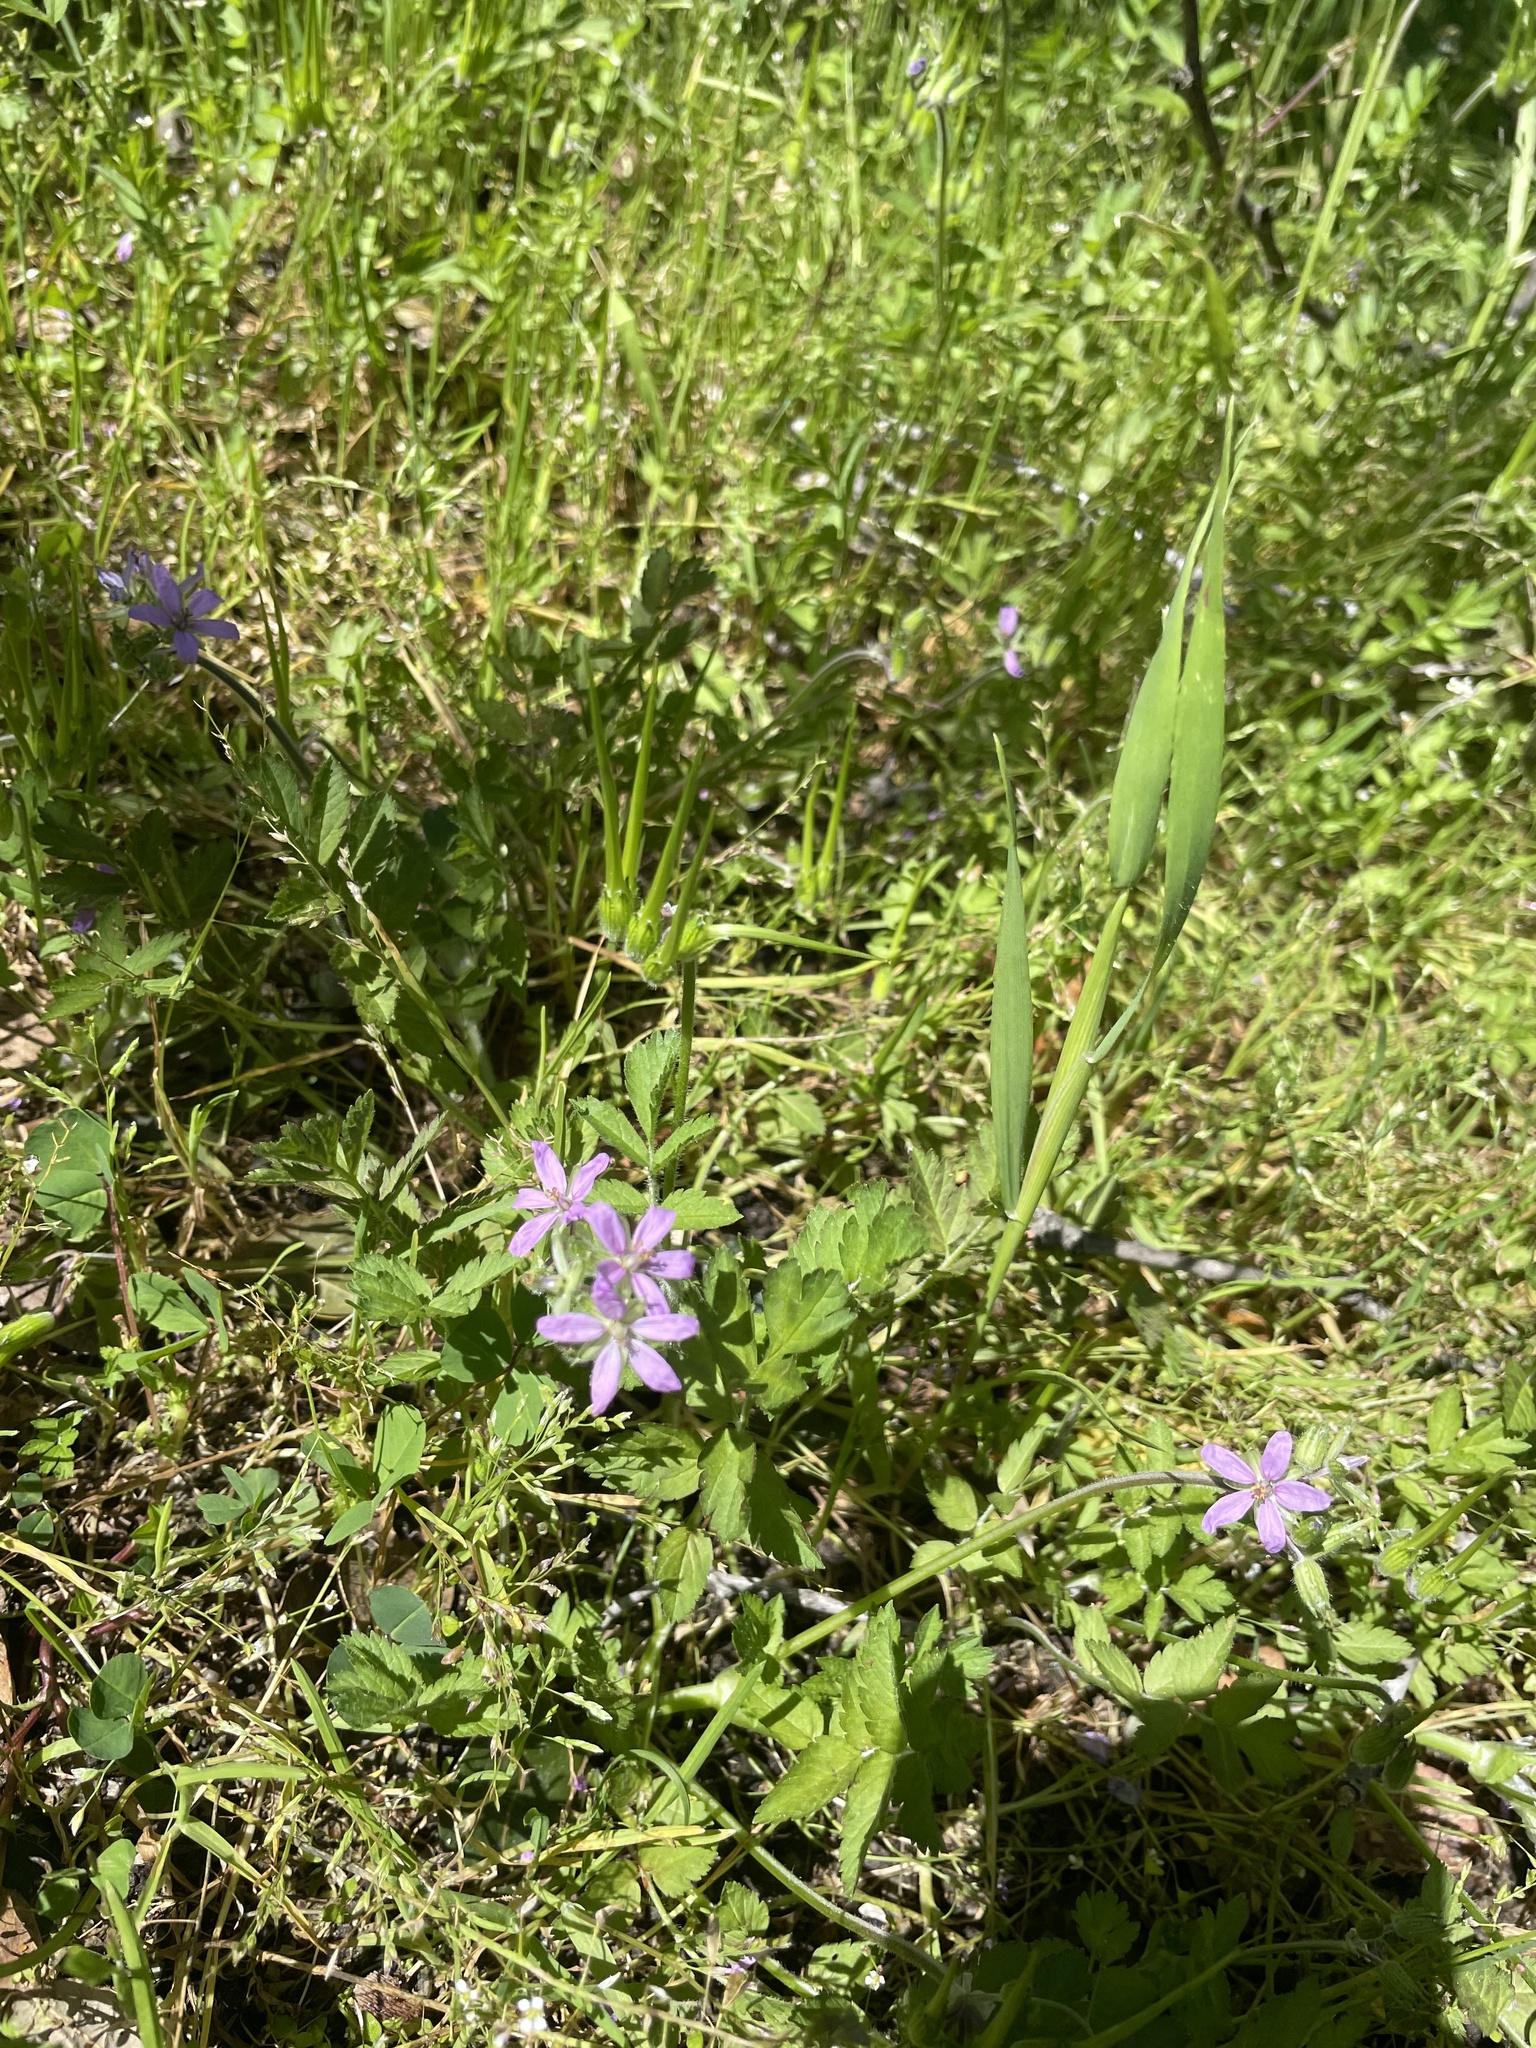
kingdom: Plantae
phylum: Tracheophyta
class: Magnoliopsida
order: Geraniales
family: Geraniaceae
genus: Erodium
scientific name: Erodium moschatum
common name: Musk stork's-bill
